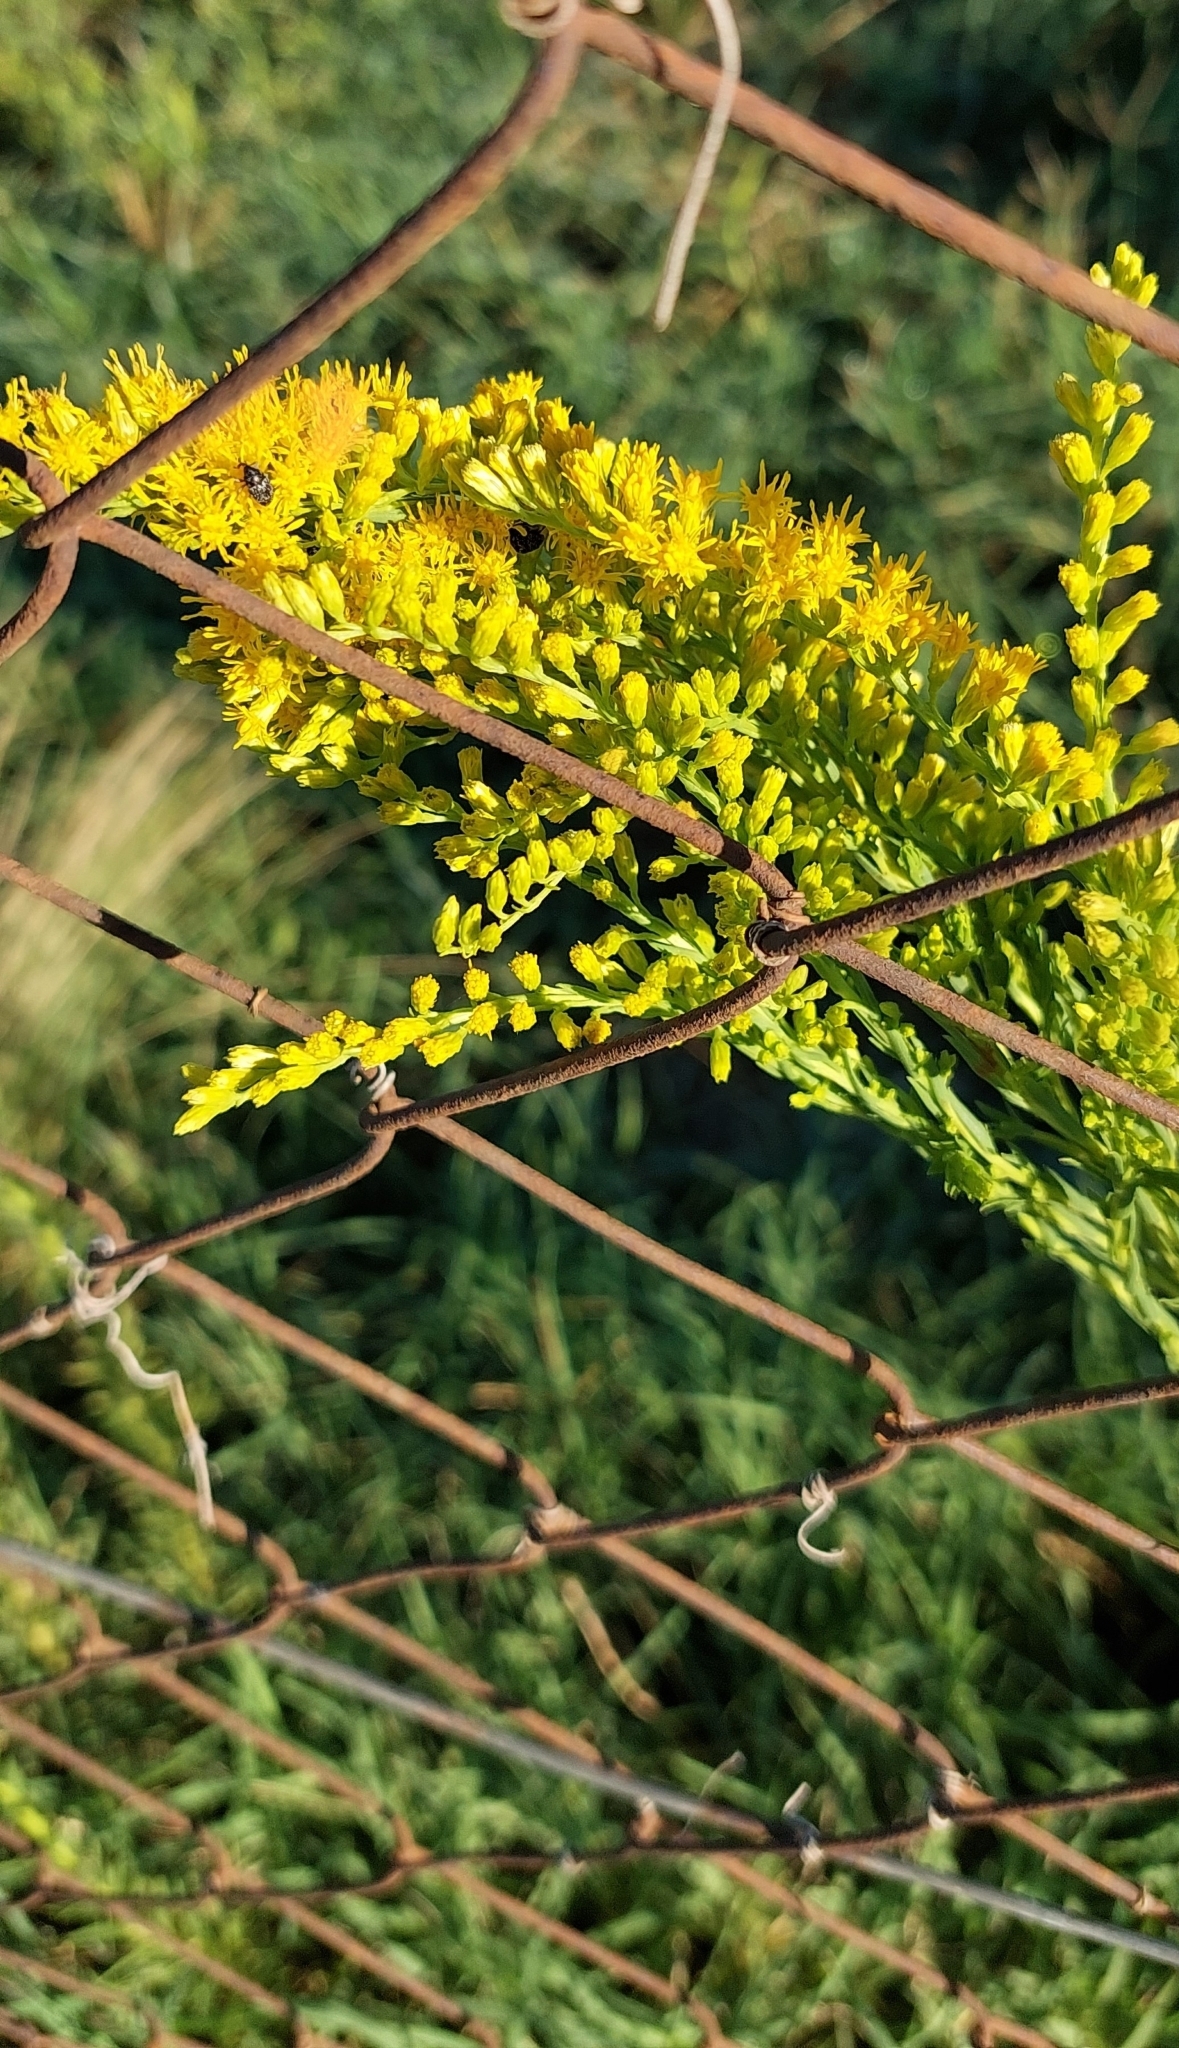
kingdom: Plantae
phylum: Tracheophyta
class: Magnoliopsida
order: Asterales
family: Asteraceae
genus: Solidago
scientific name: Solidago chilensis
